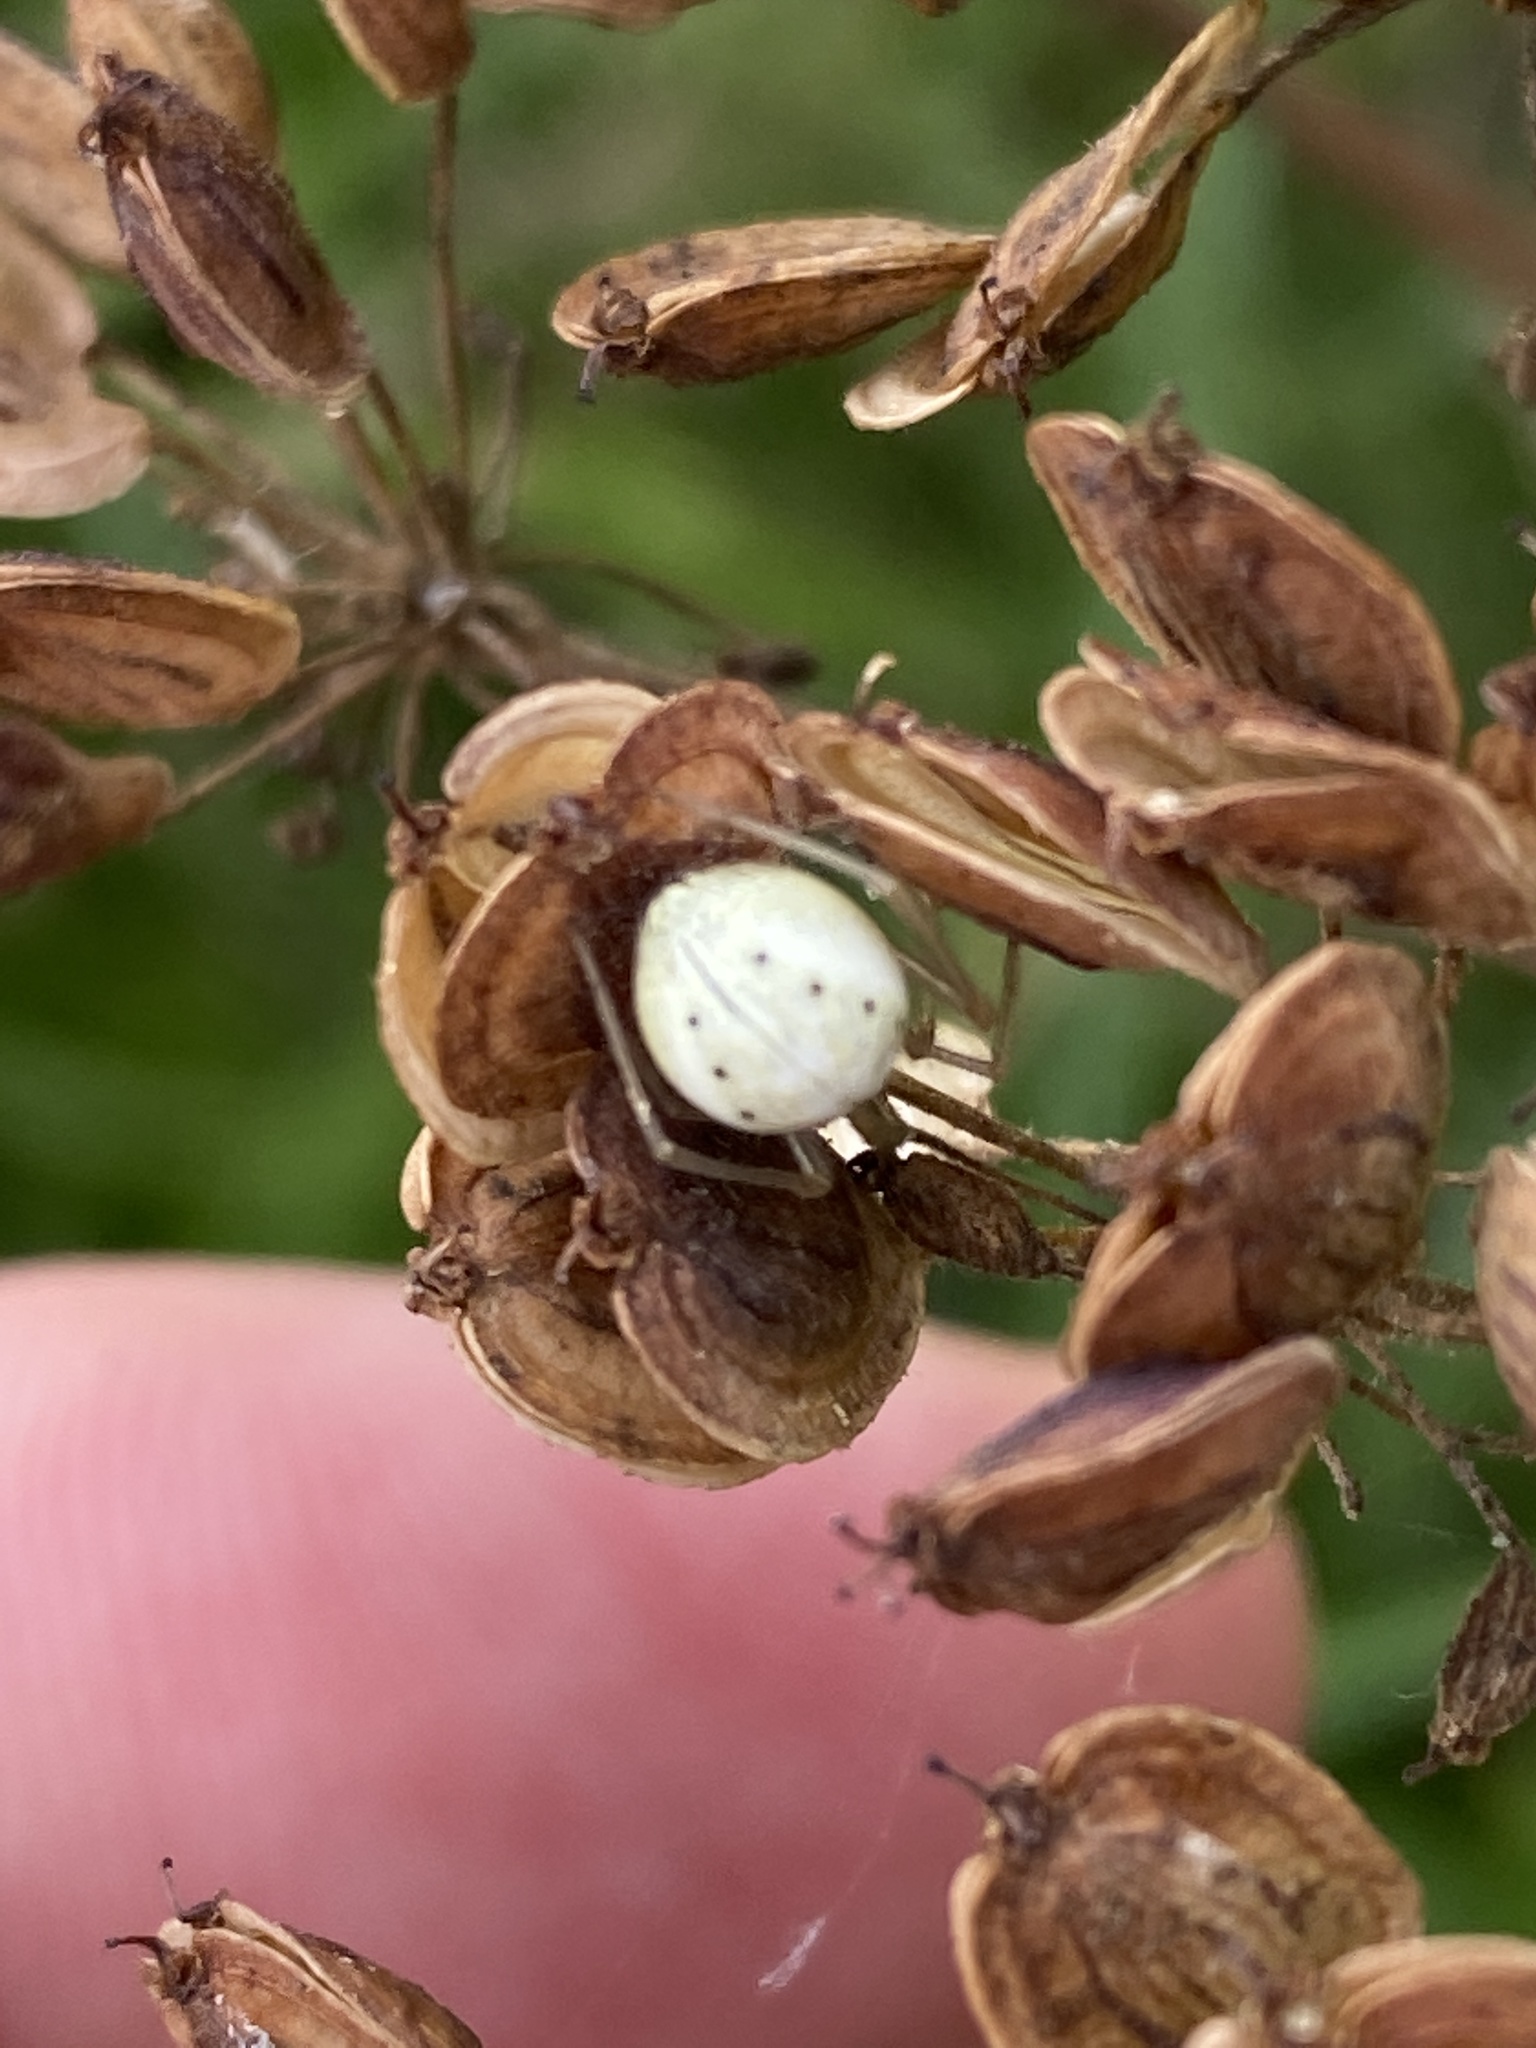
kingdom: Animalia
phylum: Arthropoda
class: Arachnida
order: Araneae
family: Theridiidae
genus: Enoplognatha
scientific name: Enoplognatha
